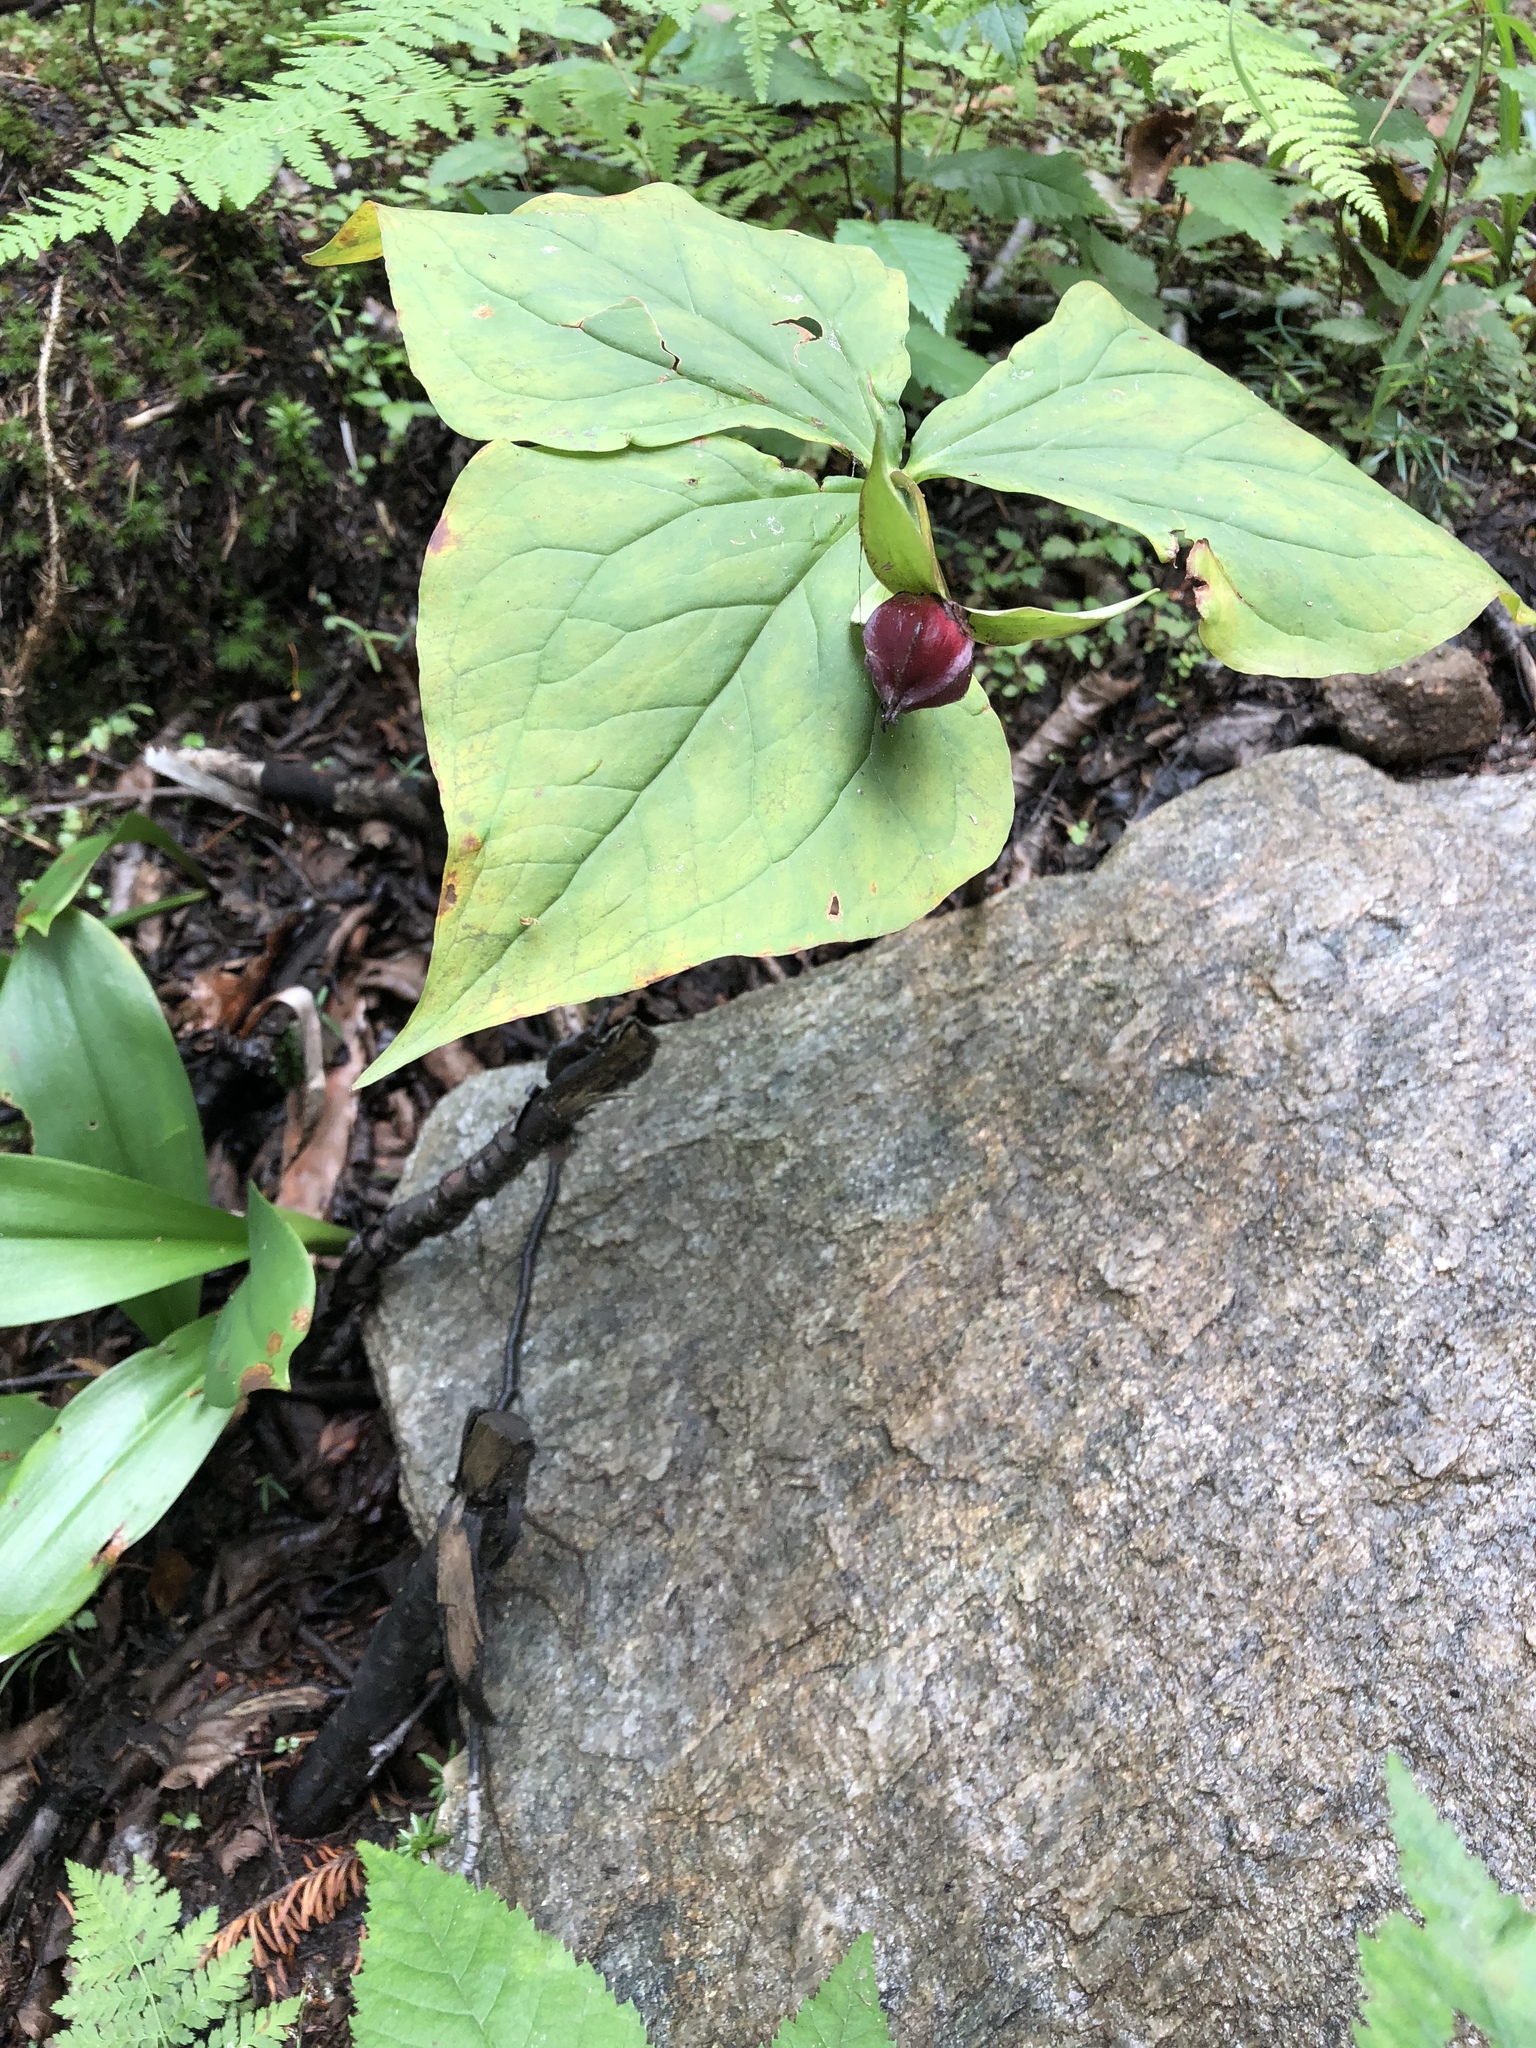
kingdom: Plantae
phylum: Tracheophyta
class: Liliopsida
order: Liliales
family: Melanthiaceae
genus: Trillium
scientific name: Trillium erectum
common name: Purple trillium
